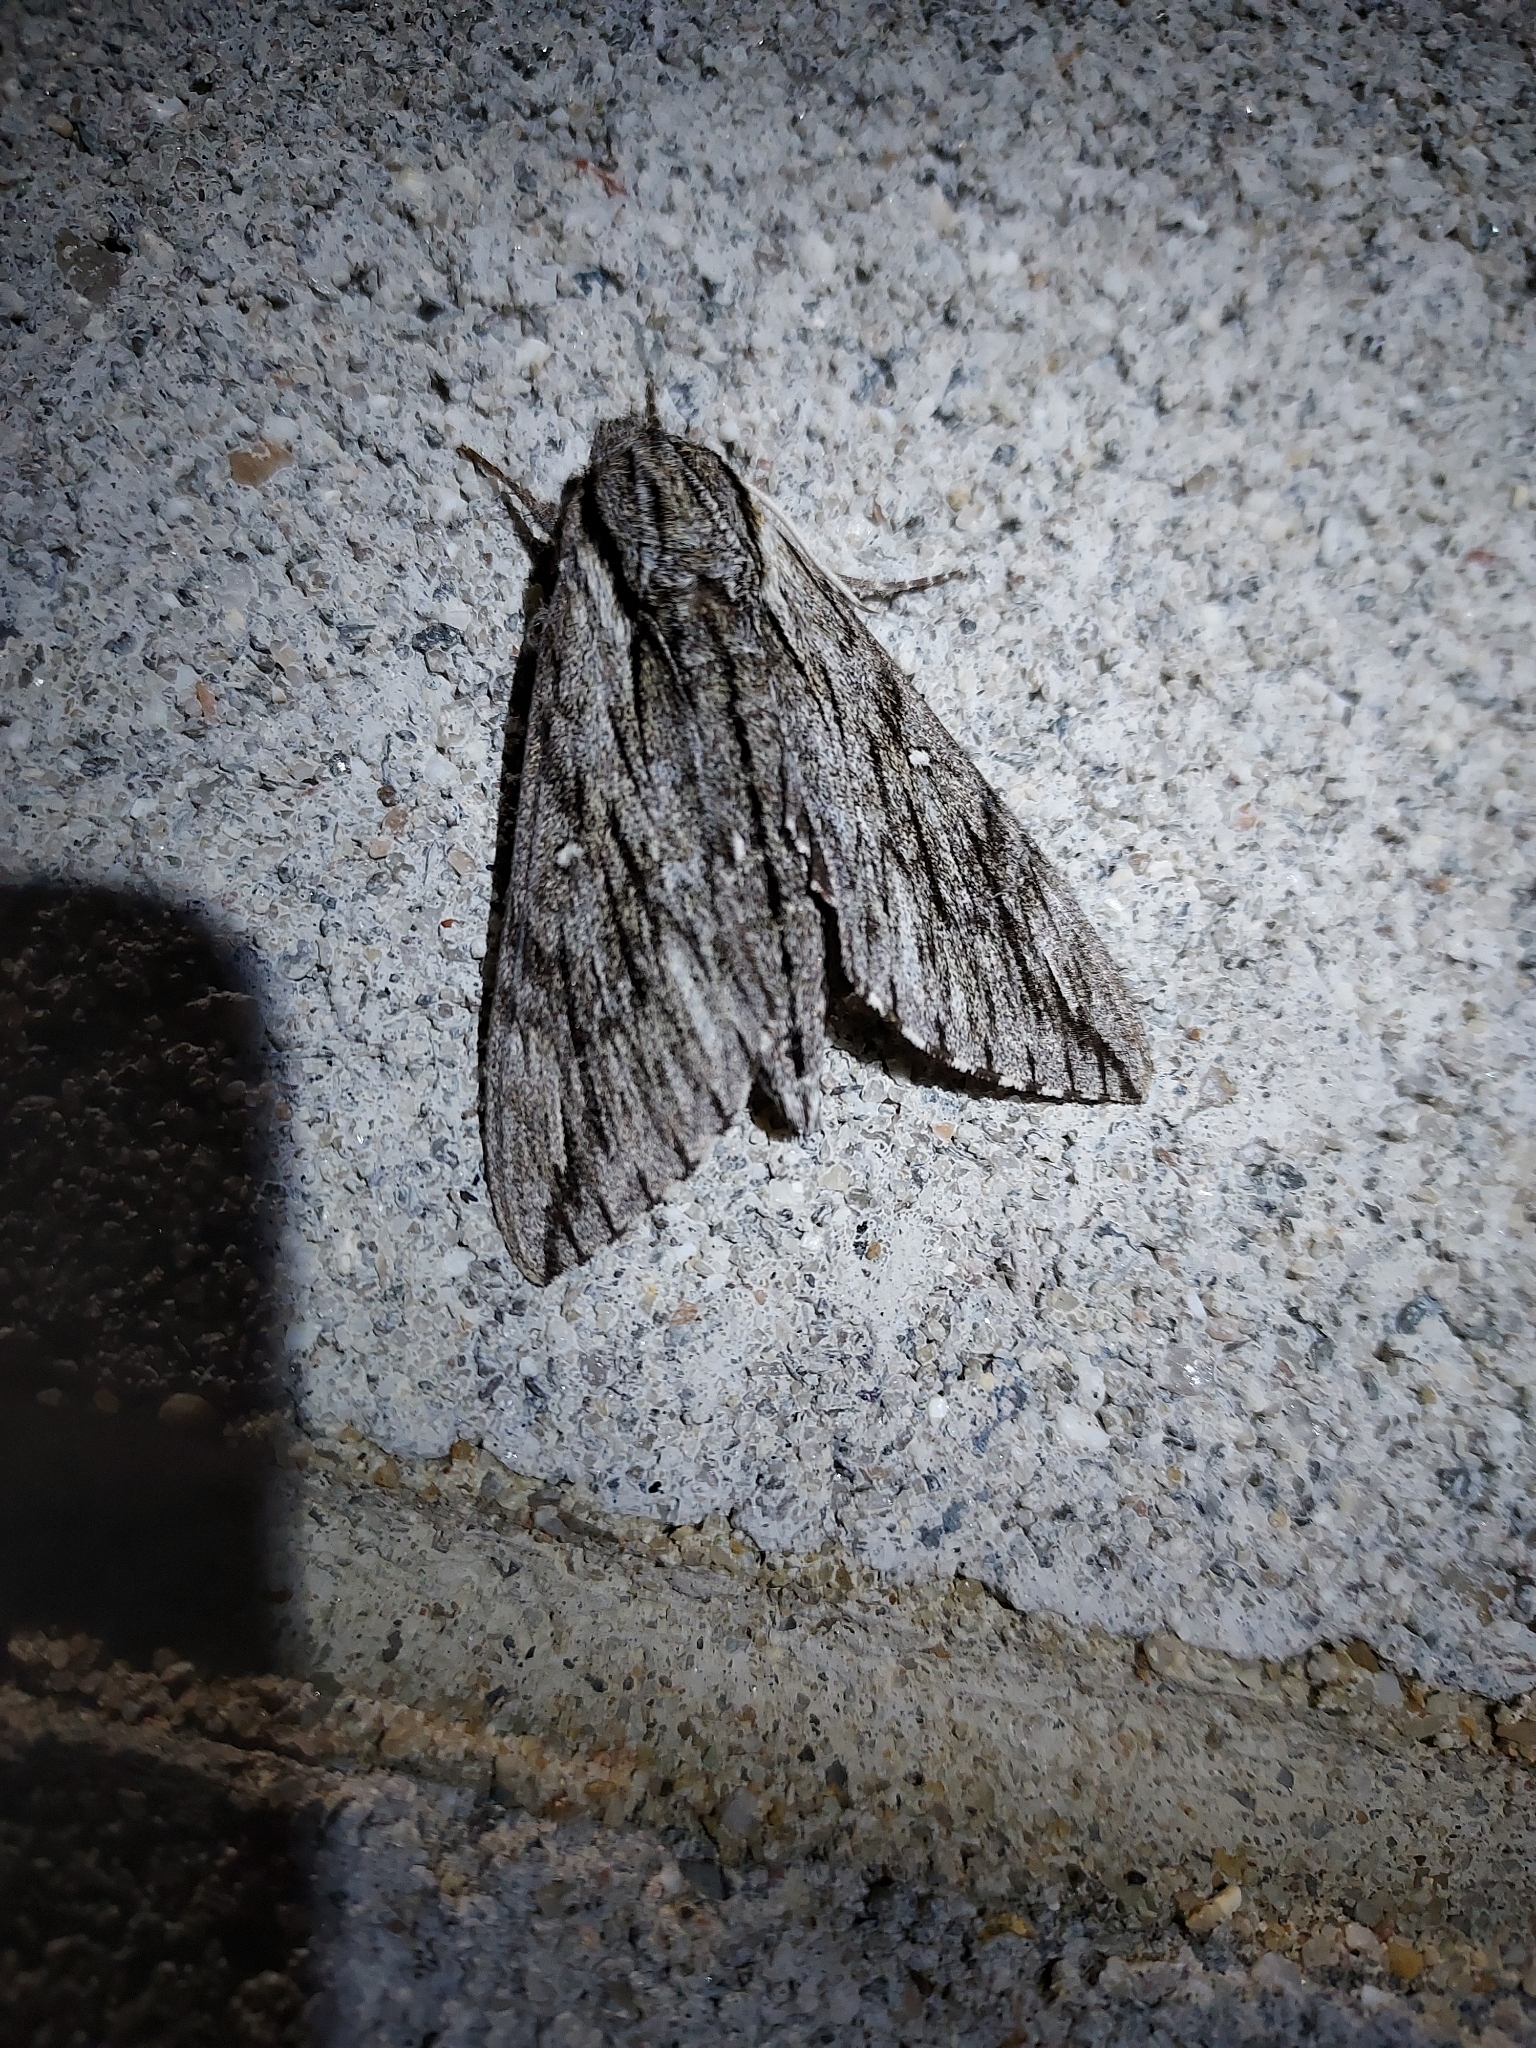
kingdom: Animalia
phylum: Arthropoda
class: Insecta
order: Lepidoptera
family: Sphingidae
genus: Paratrea
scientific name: Paratrea plebeja
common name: Plebian sphinx
